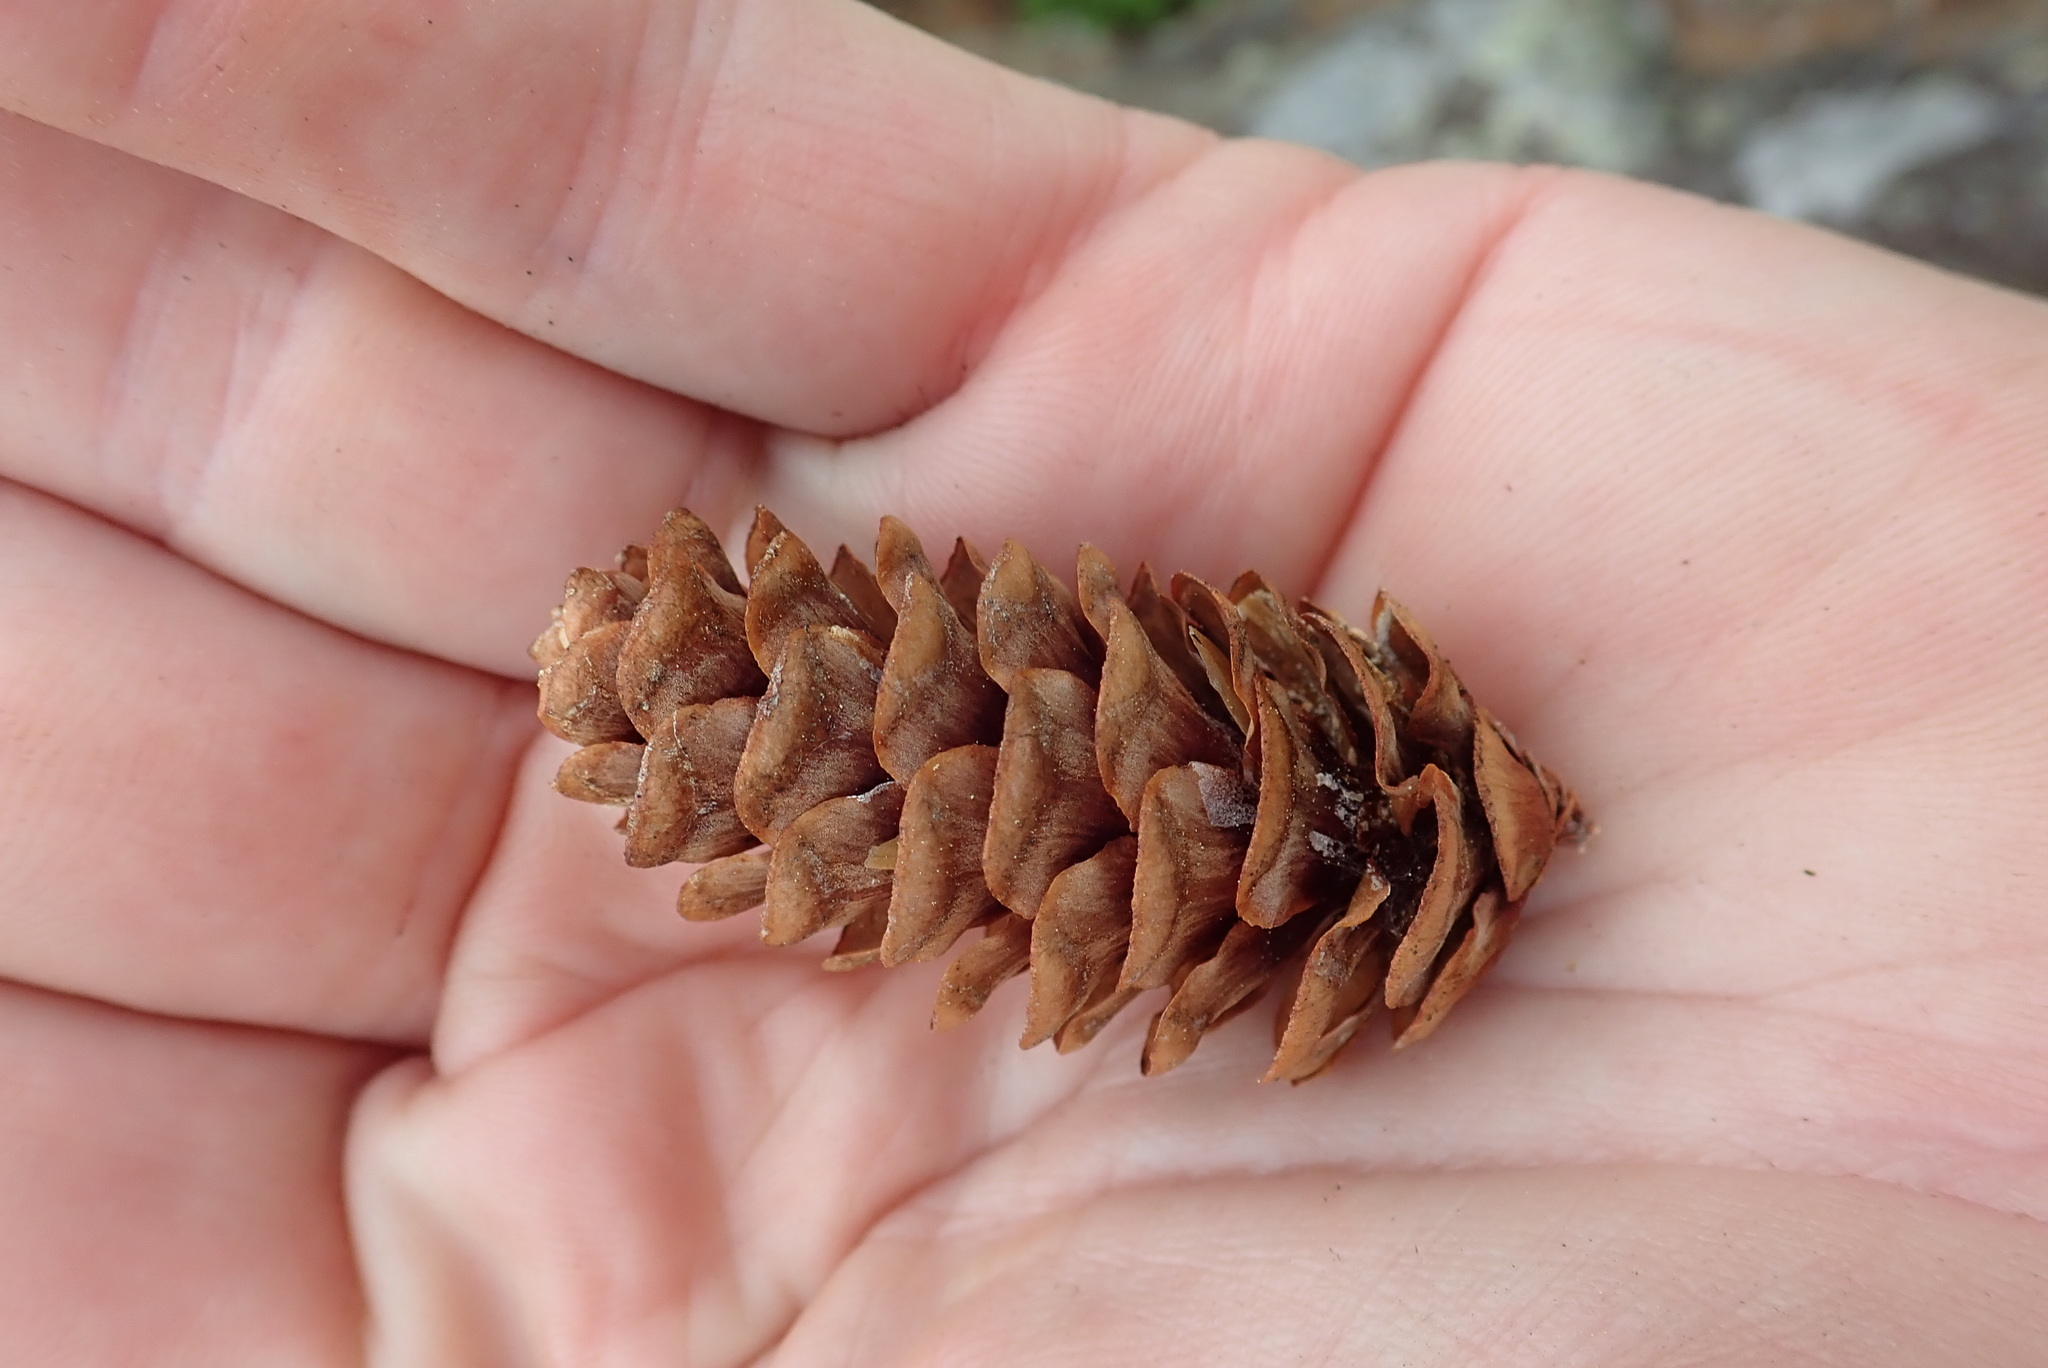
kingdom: Plantae
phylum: Tracheophyta
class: Pinopsida
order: Pinales
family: Pinaceae
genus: Picea
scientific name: Picea glauca
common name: White spruce
